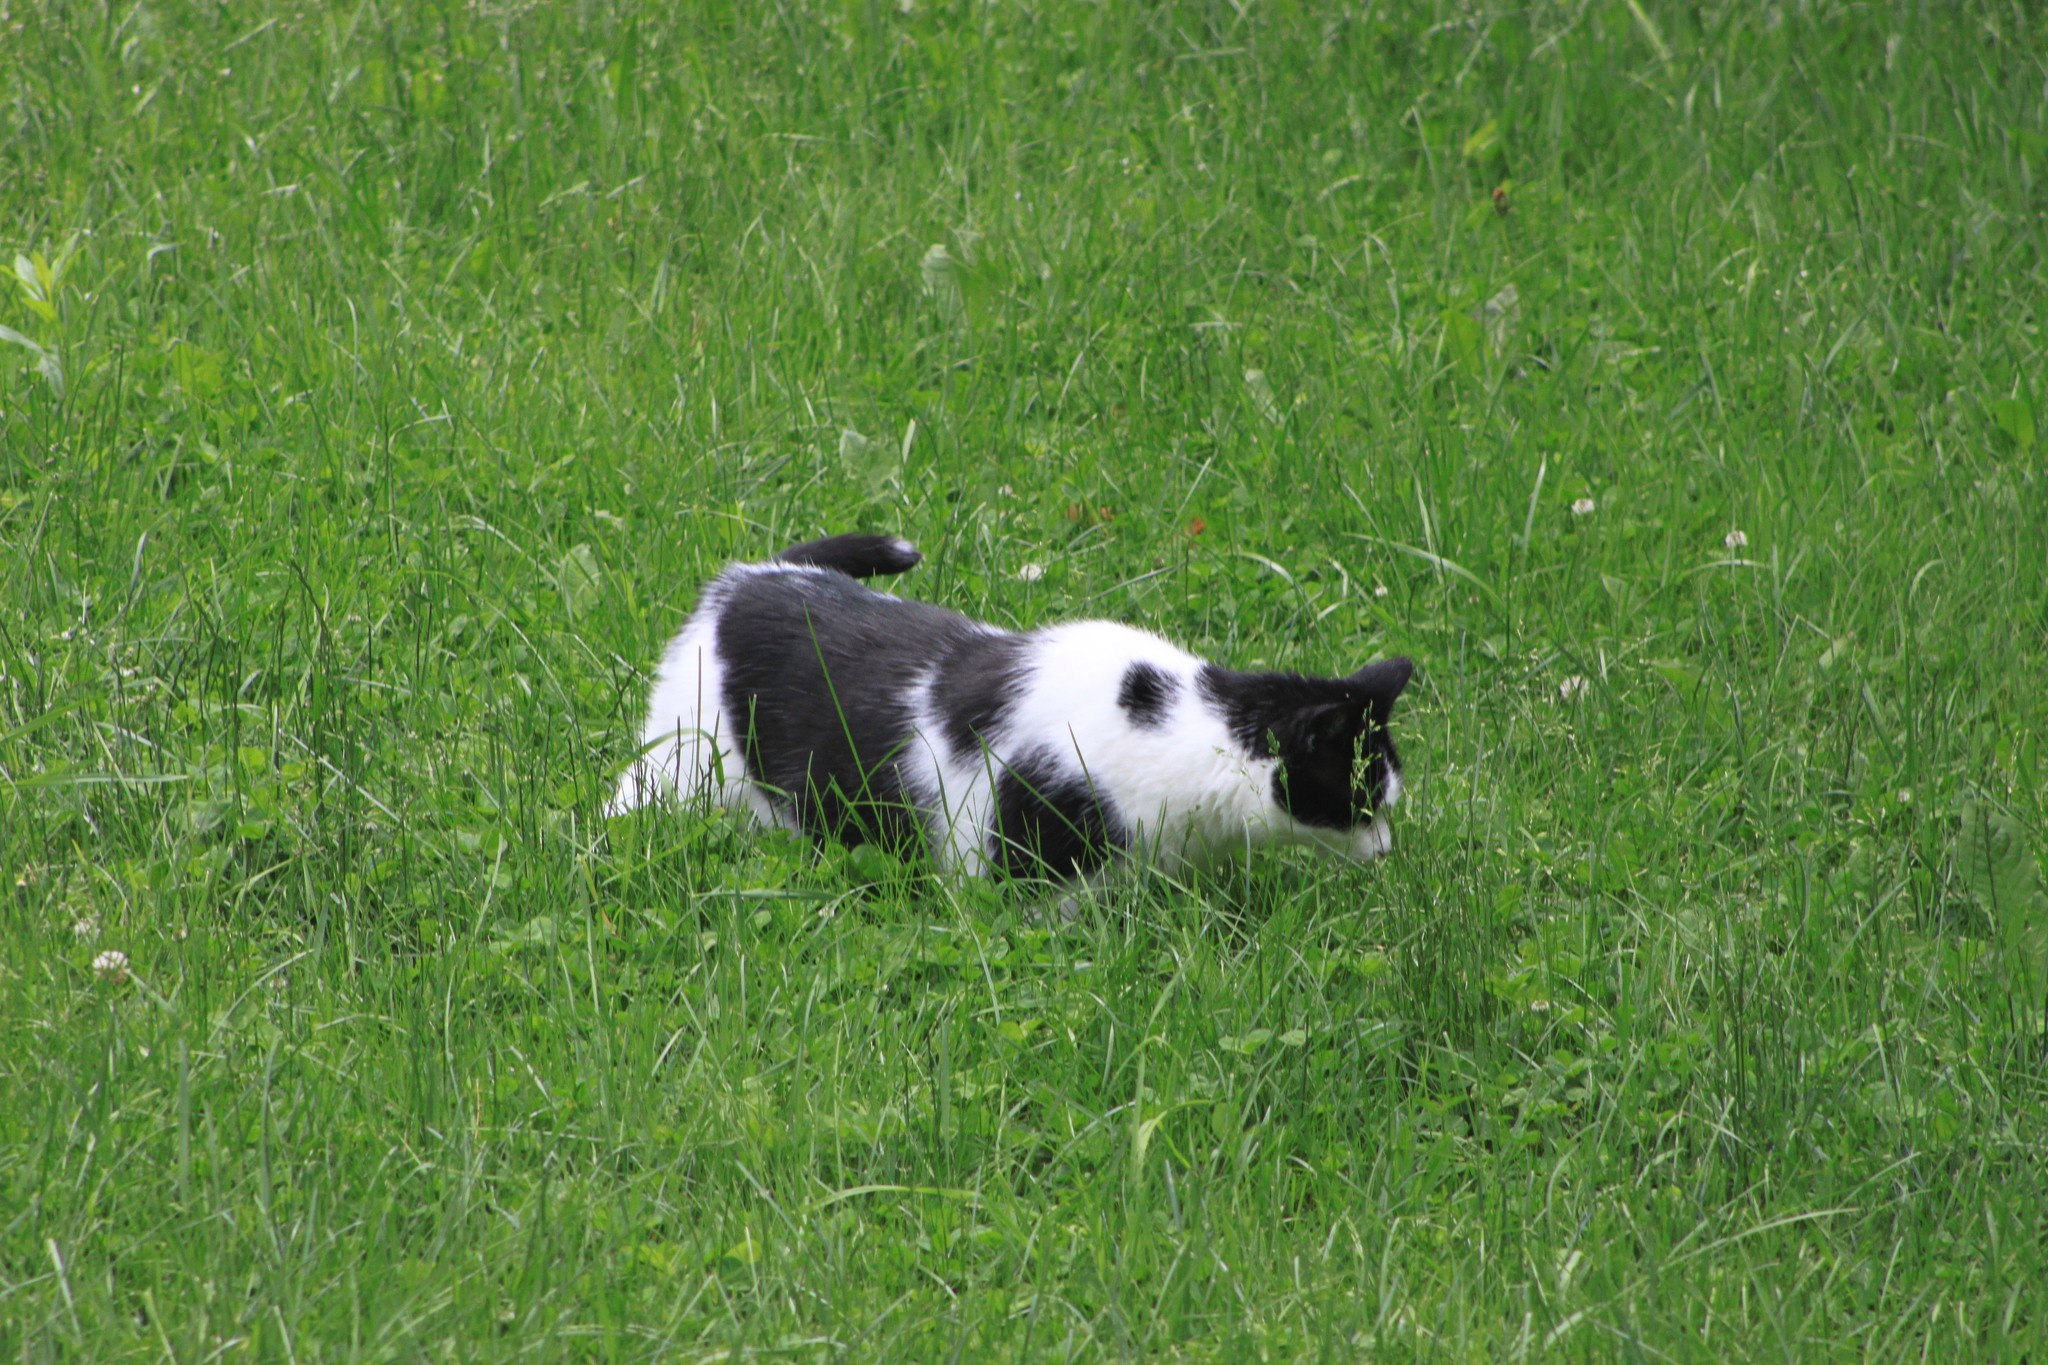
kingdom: Animalia
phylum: Chordata
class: Mammalia
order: Carnivora
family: Felidae
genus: Felis
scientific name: Felis catus
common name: Domestic cat
